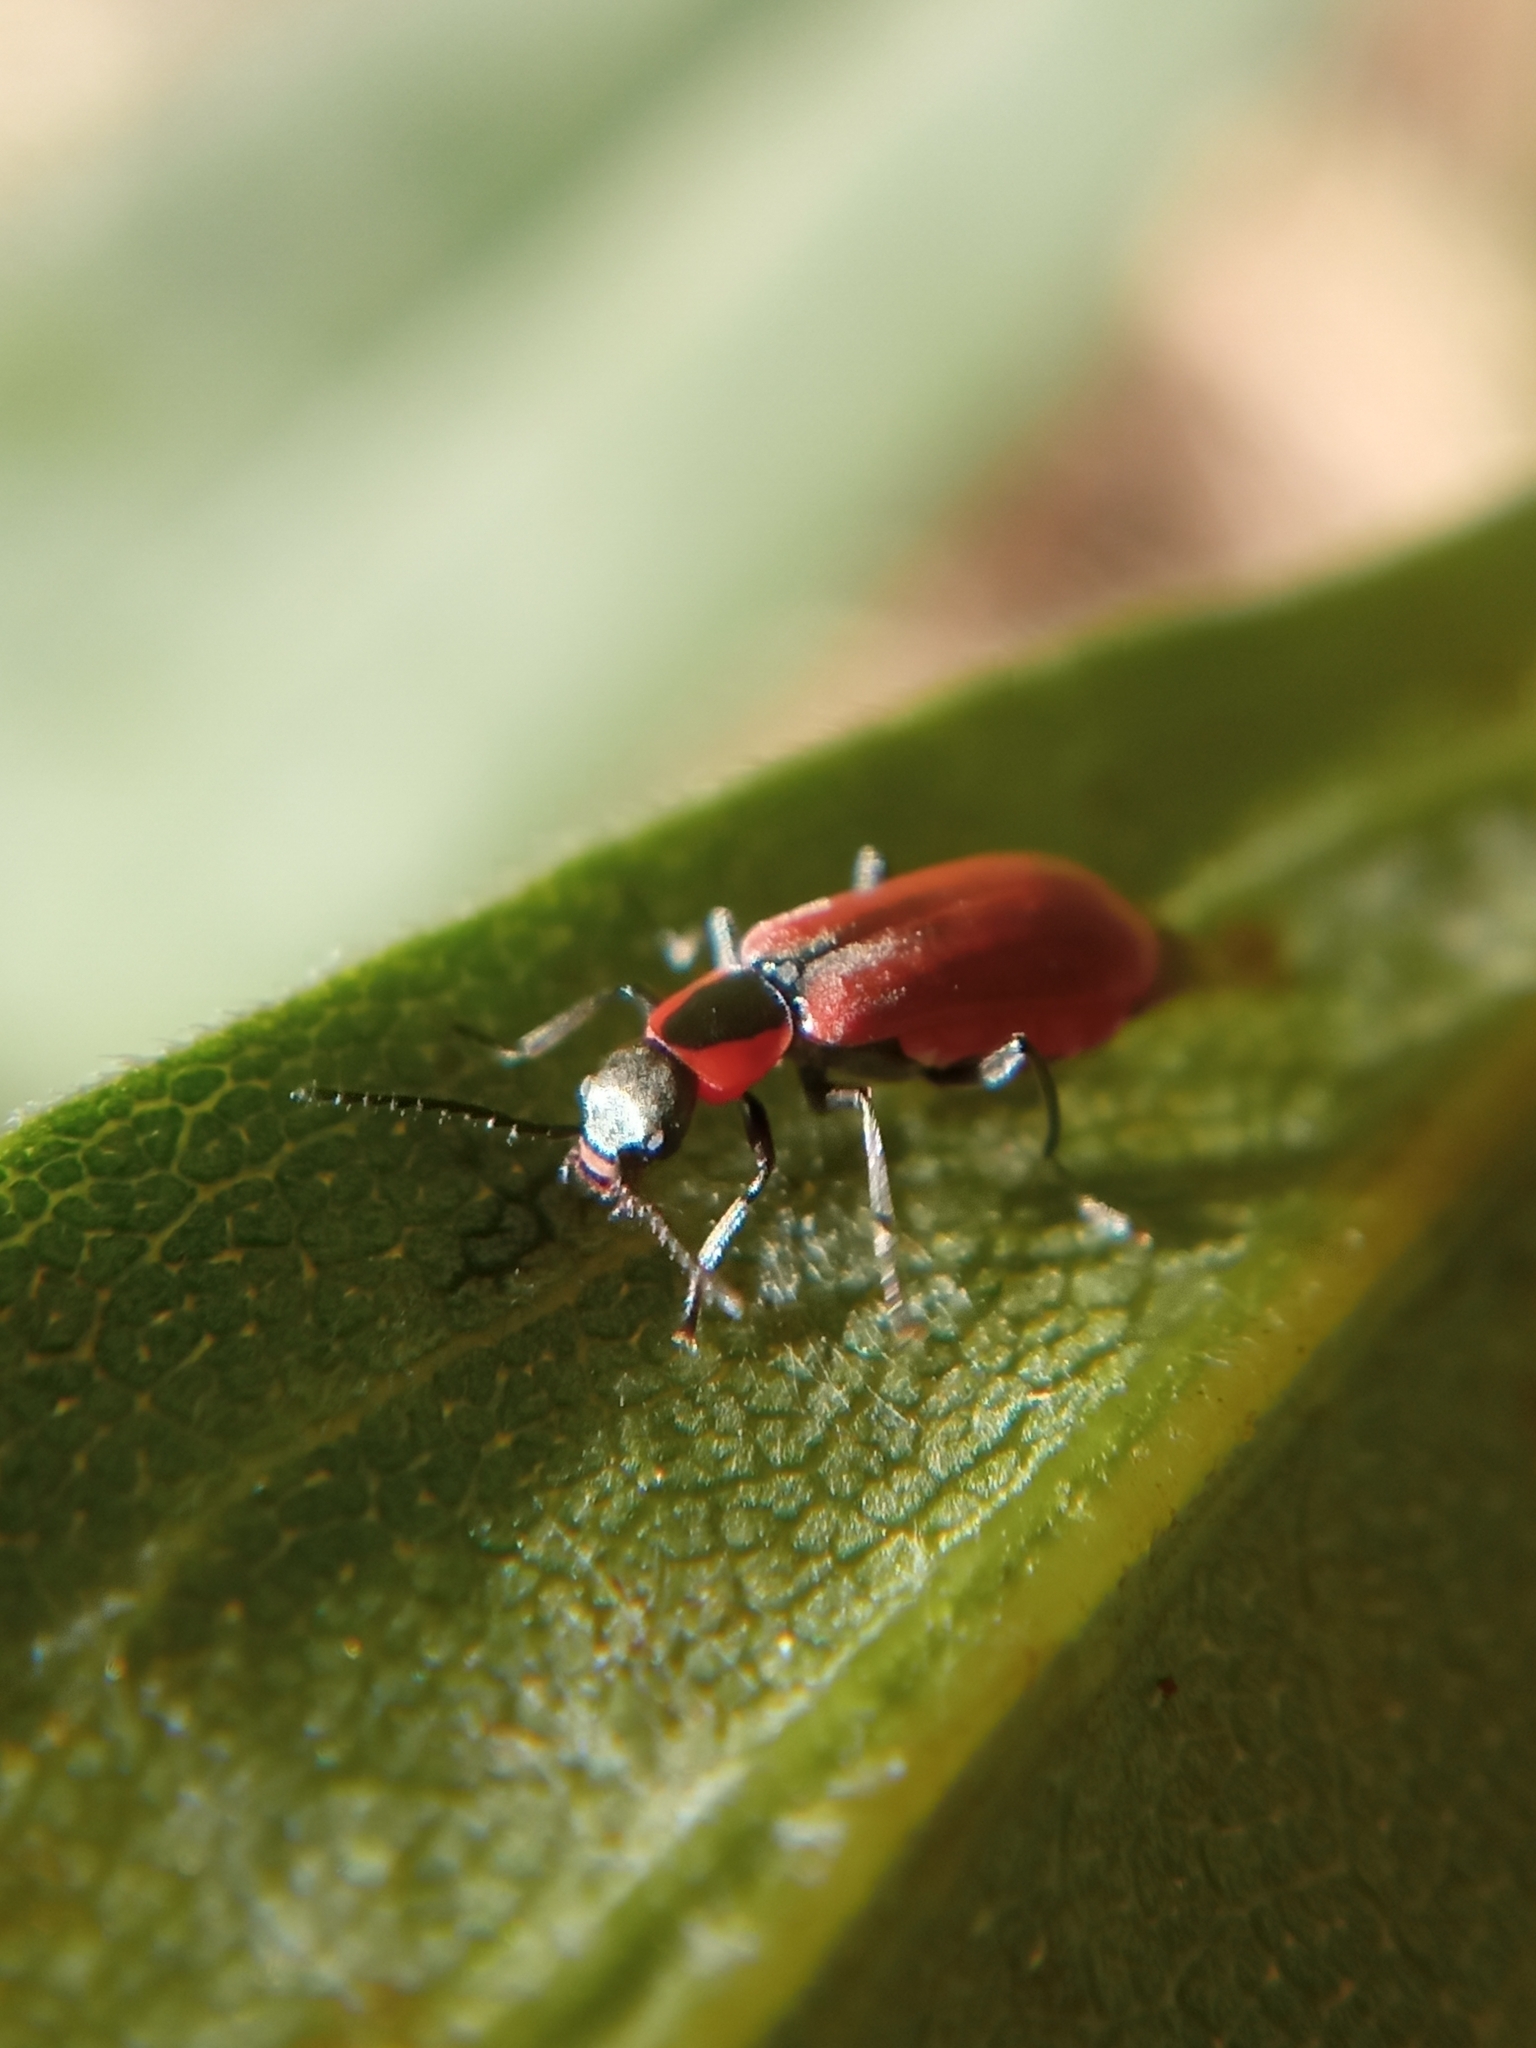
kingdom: Animalia
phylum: Arthropoda
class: Insecta
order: Coleoptera
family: Melyridae
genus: Anthocomus
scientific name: Anthocomus rufus
